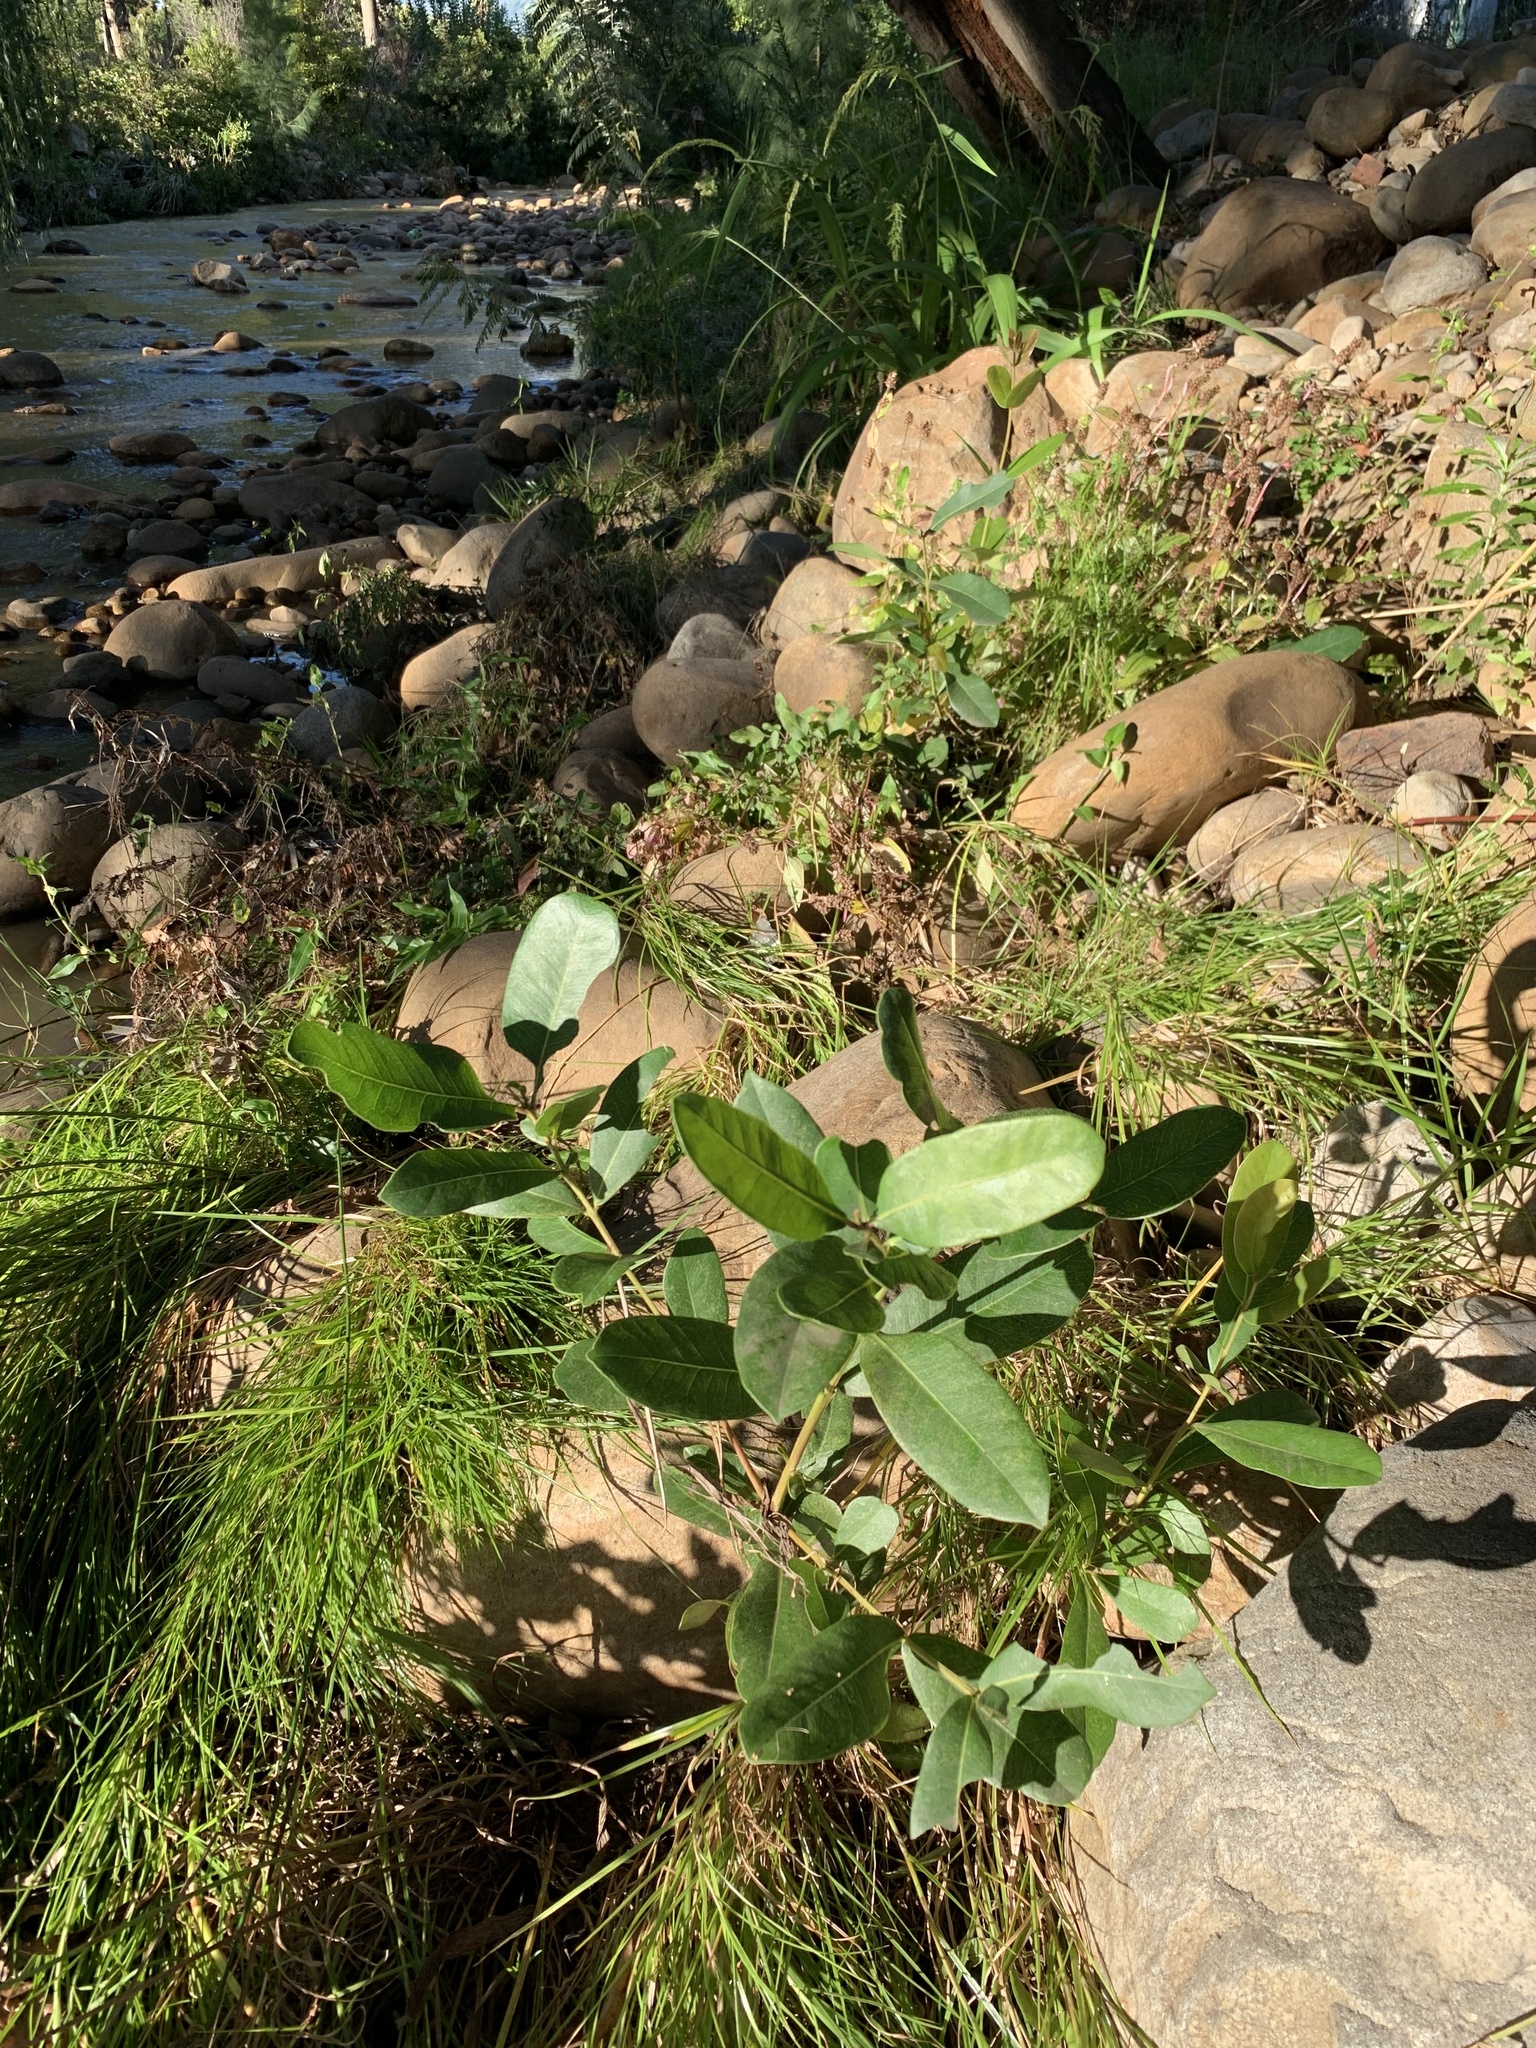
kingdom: Plantae
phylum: Tracheophyta
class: Magnoliopsida
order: Myrtales
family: Myrtaceae
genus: Syzygium
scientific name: Syzygium cordatum
